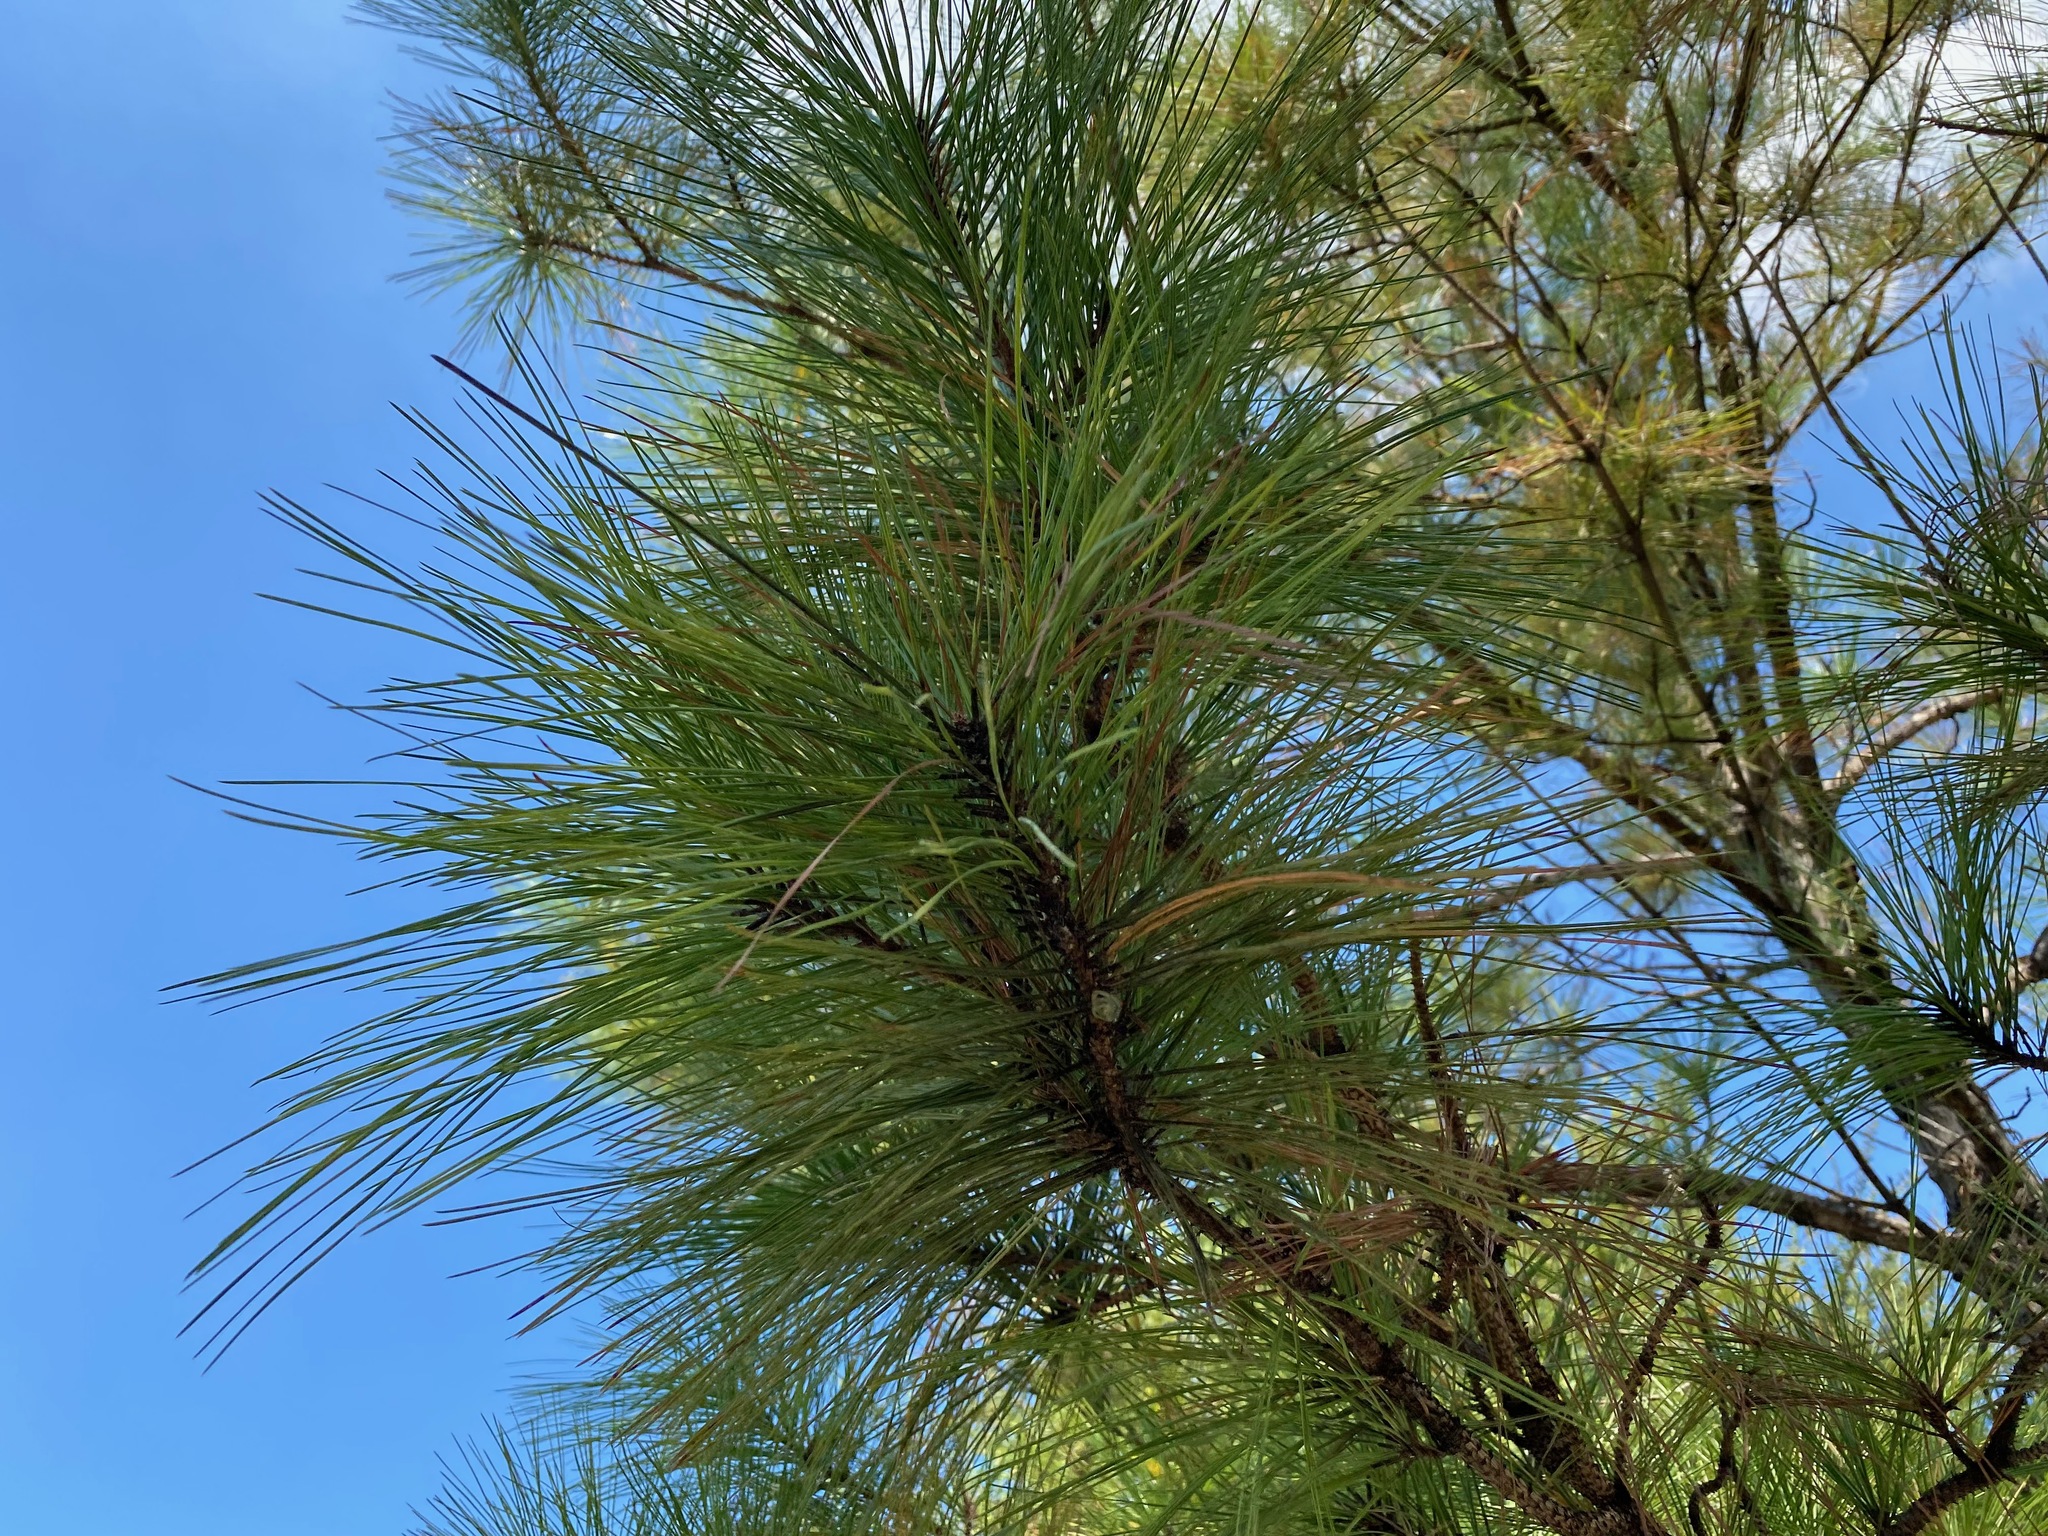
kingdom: Plantae
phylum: Tracheophyta
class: Pinopsida
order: Pinales
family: Pinaceae
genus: Pinus
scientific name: Pinus taeda
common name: Loblolly pine
